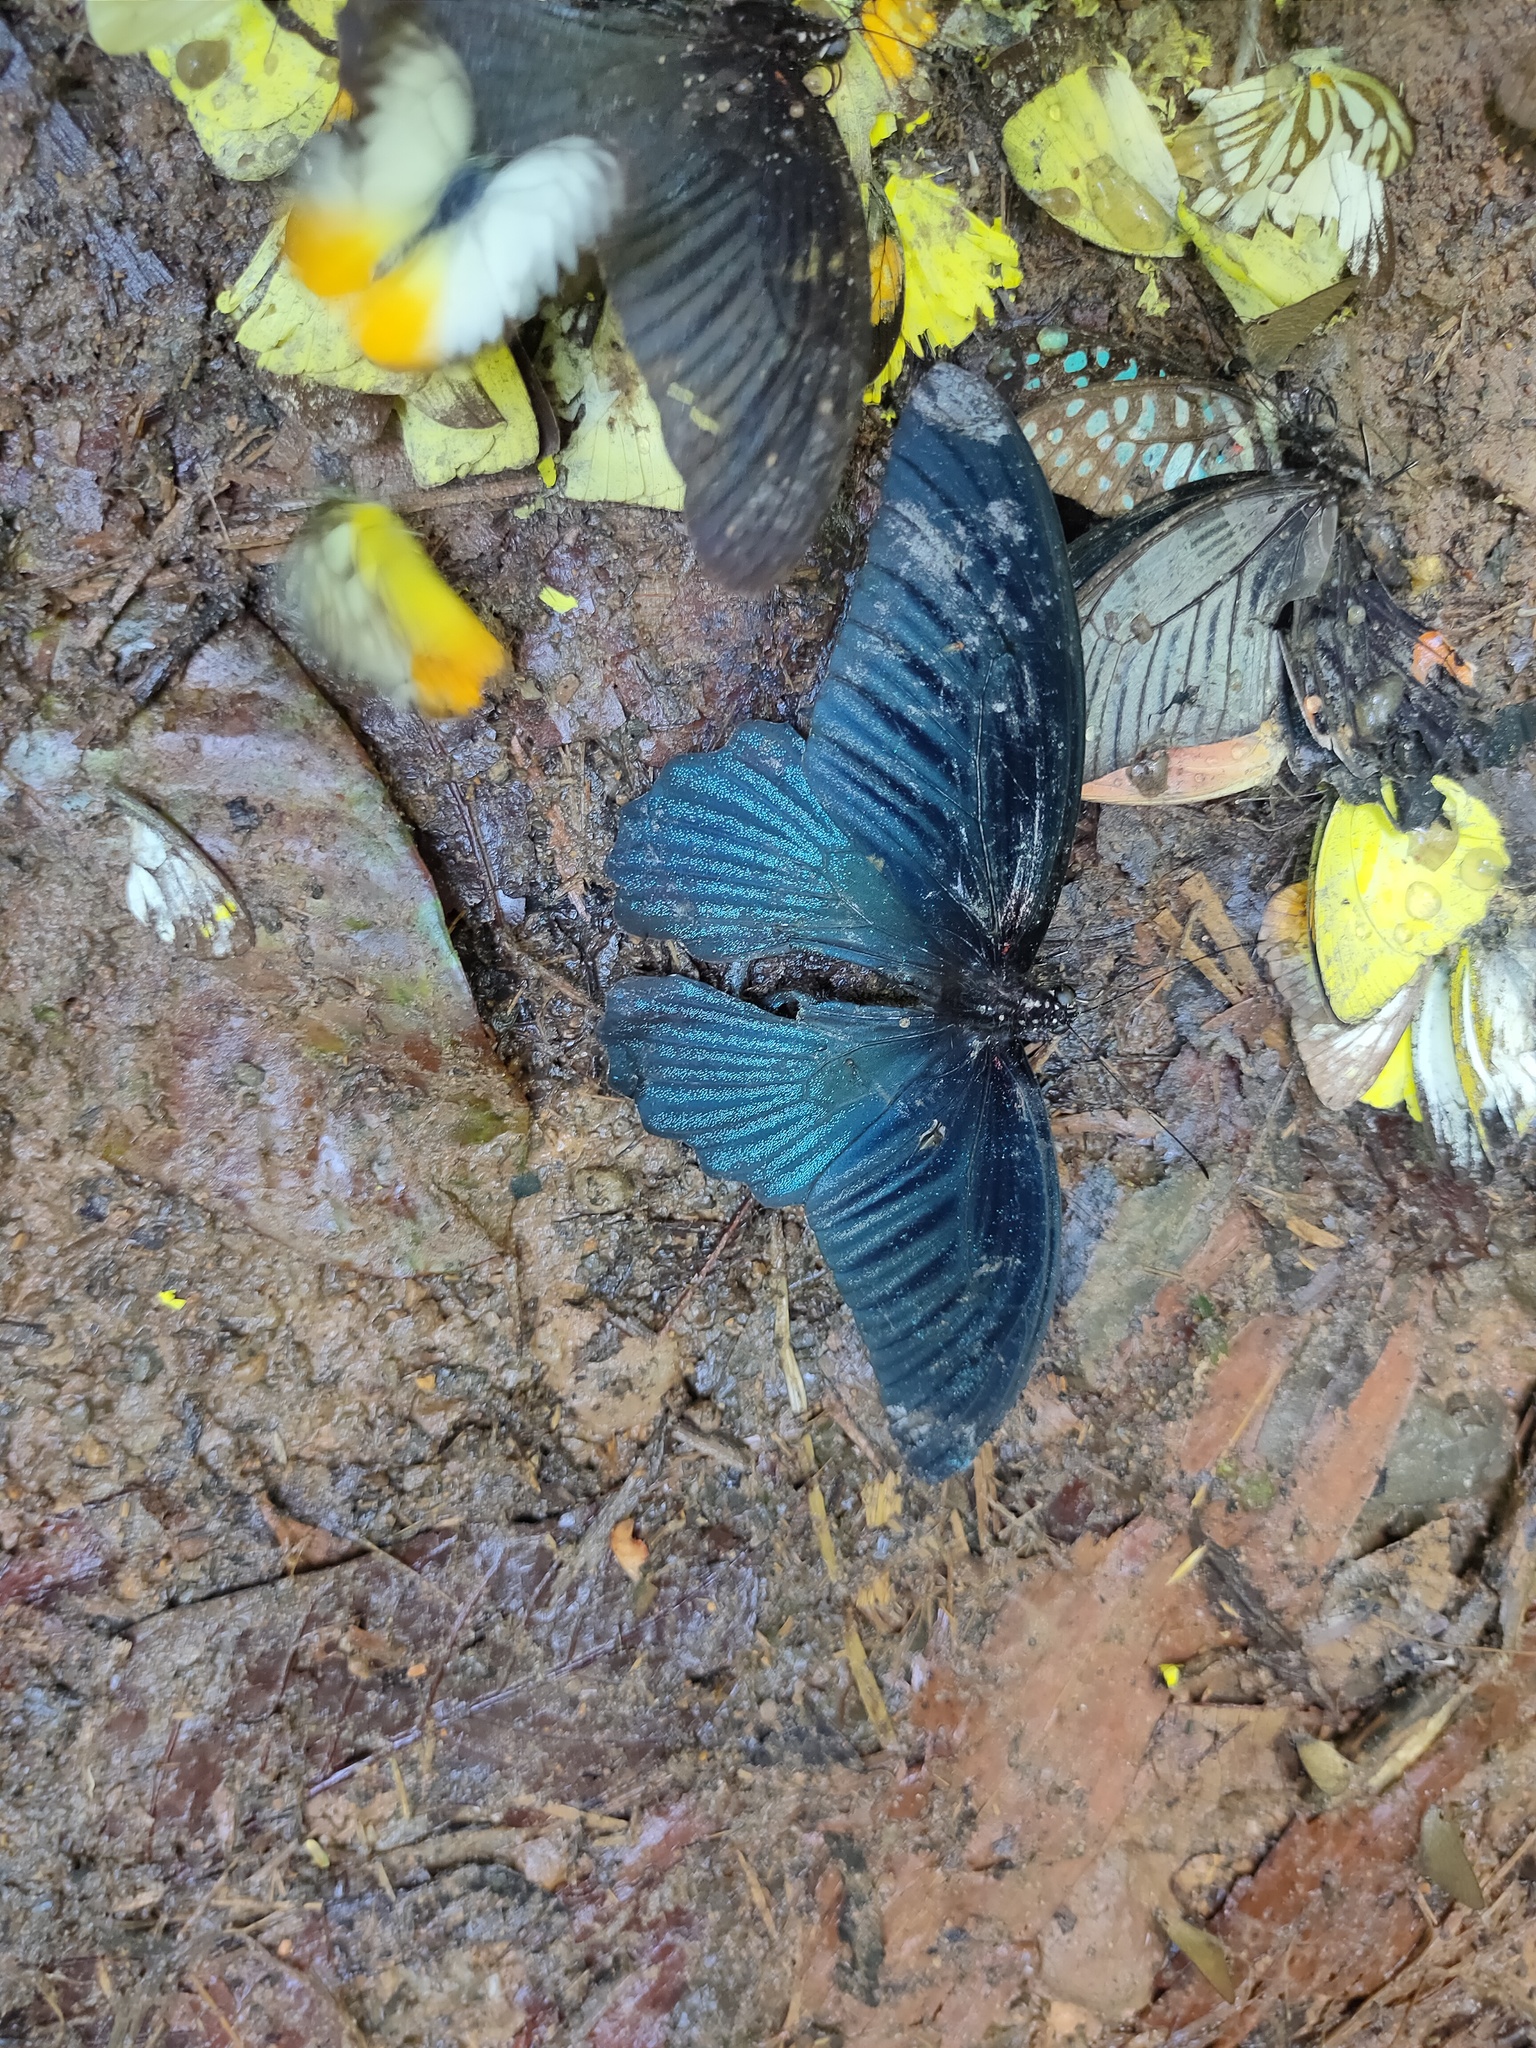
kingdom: Animalia
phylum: Arthropoda
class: Insecta
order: Lepidoptera
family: Papilionidae
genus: Papilio
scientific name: Papilio memnon
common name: Great mormon
